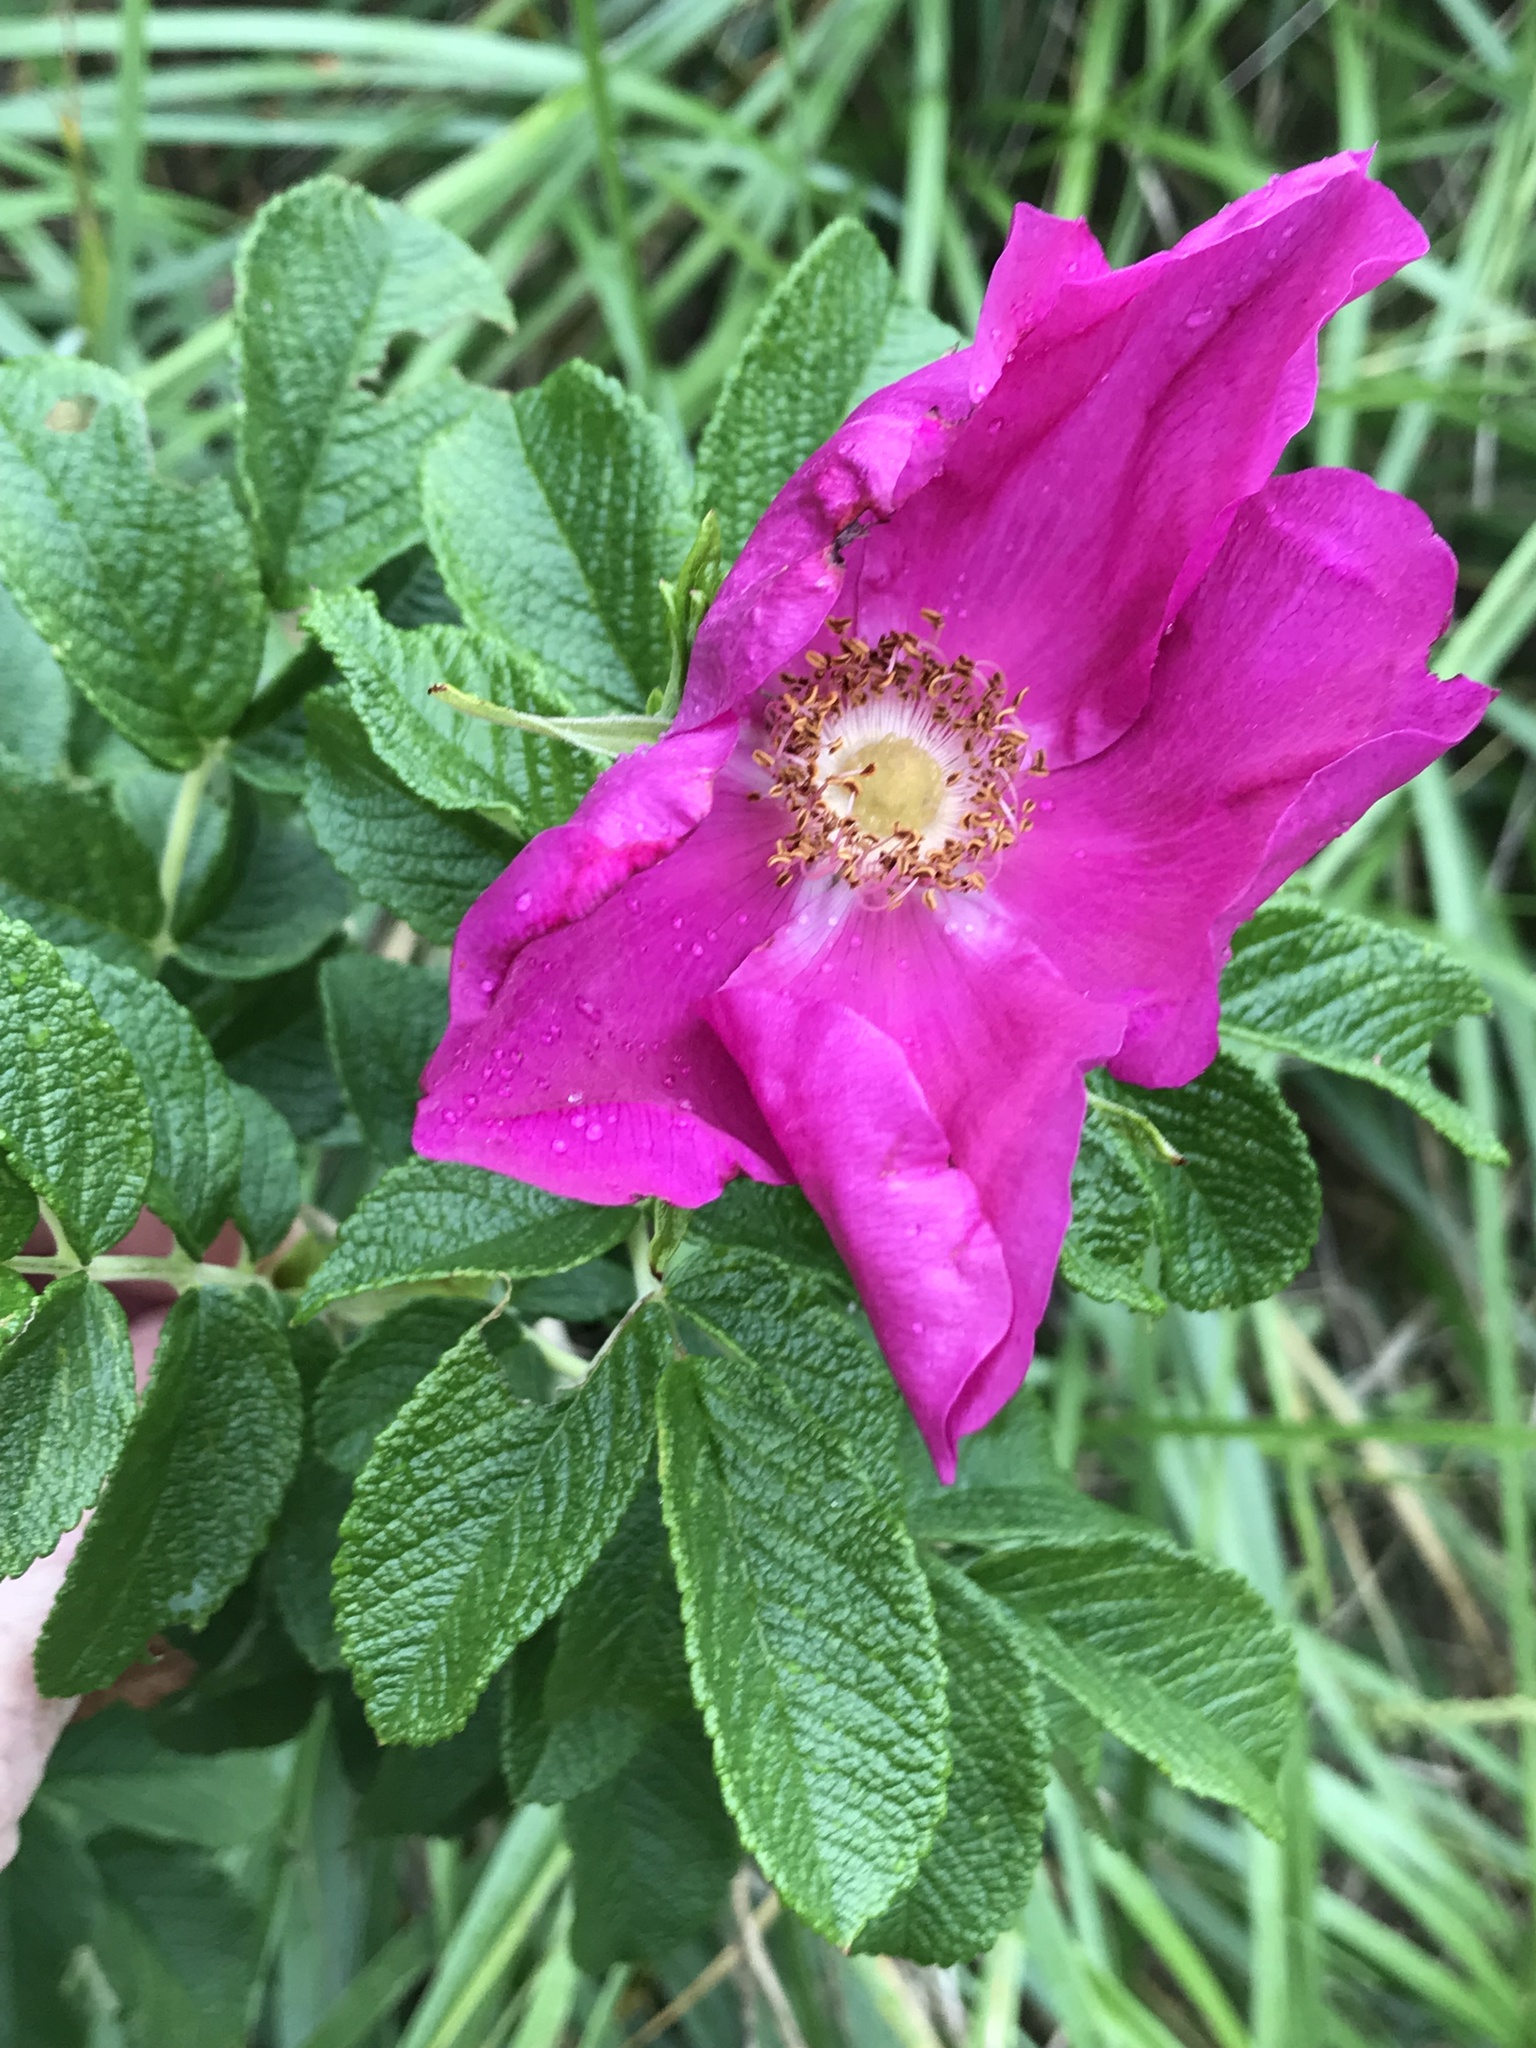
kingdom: Plantae
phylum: Tracheophyta
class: Magnoliopsida
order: Rosales
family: Rosaceae
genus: Rosa
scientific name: Rosa rugosa
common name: Japanese rose
